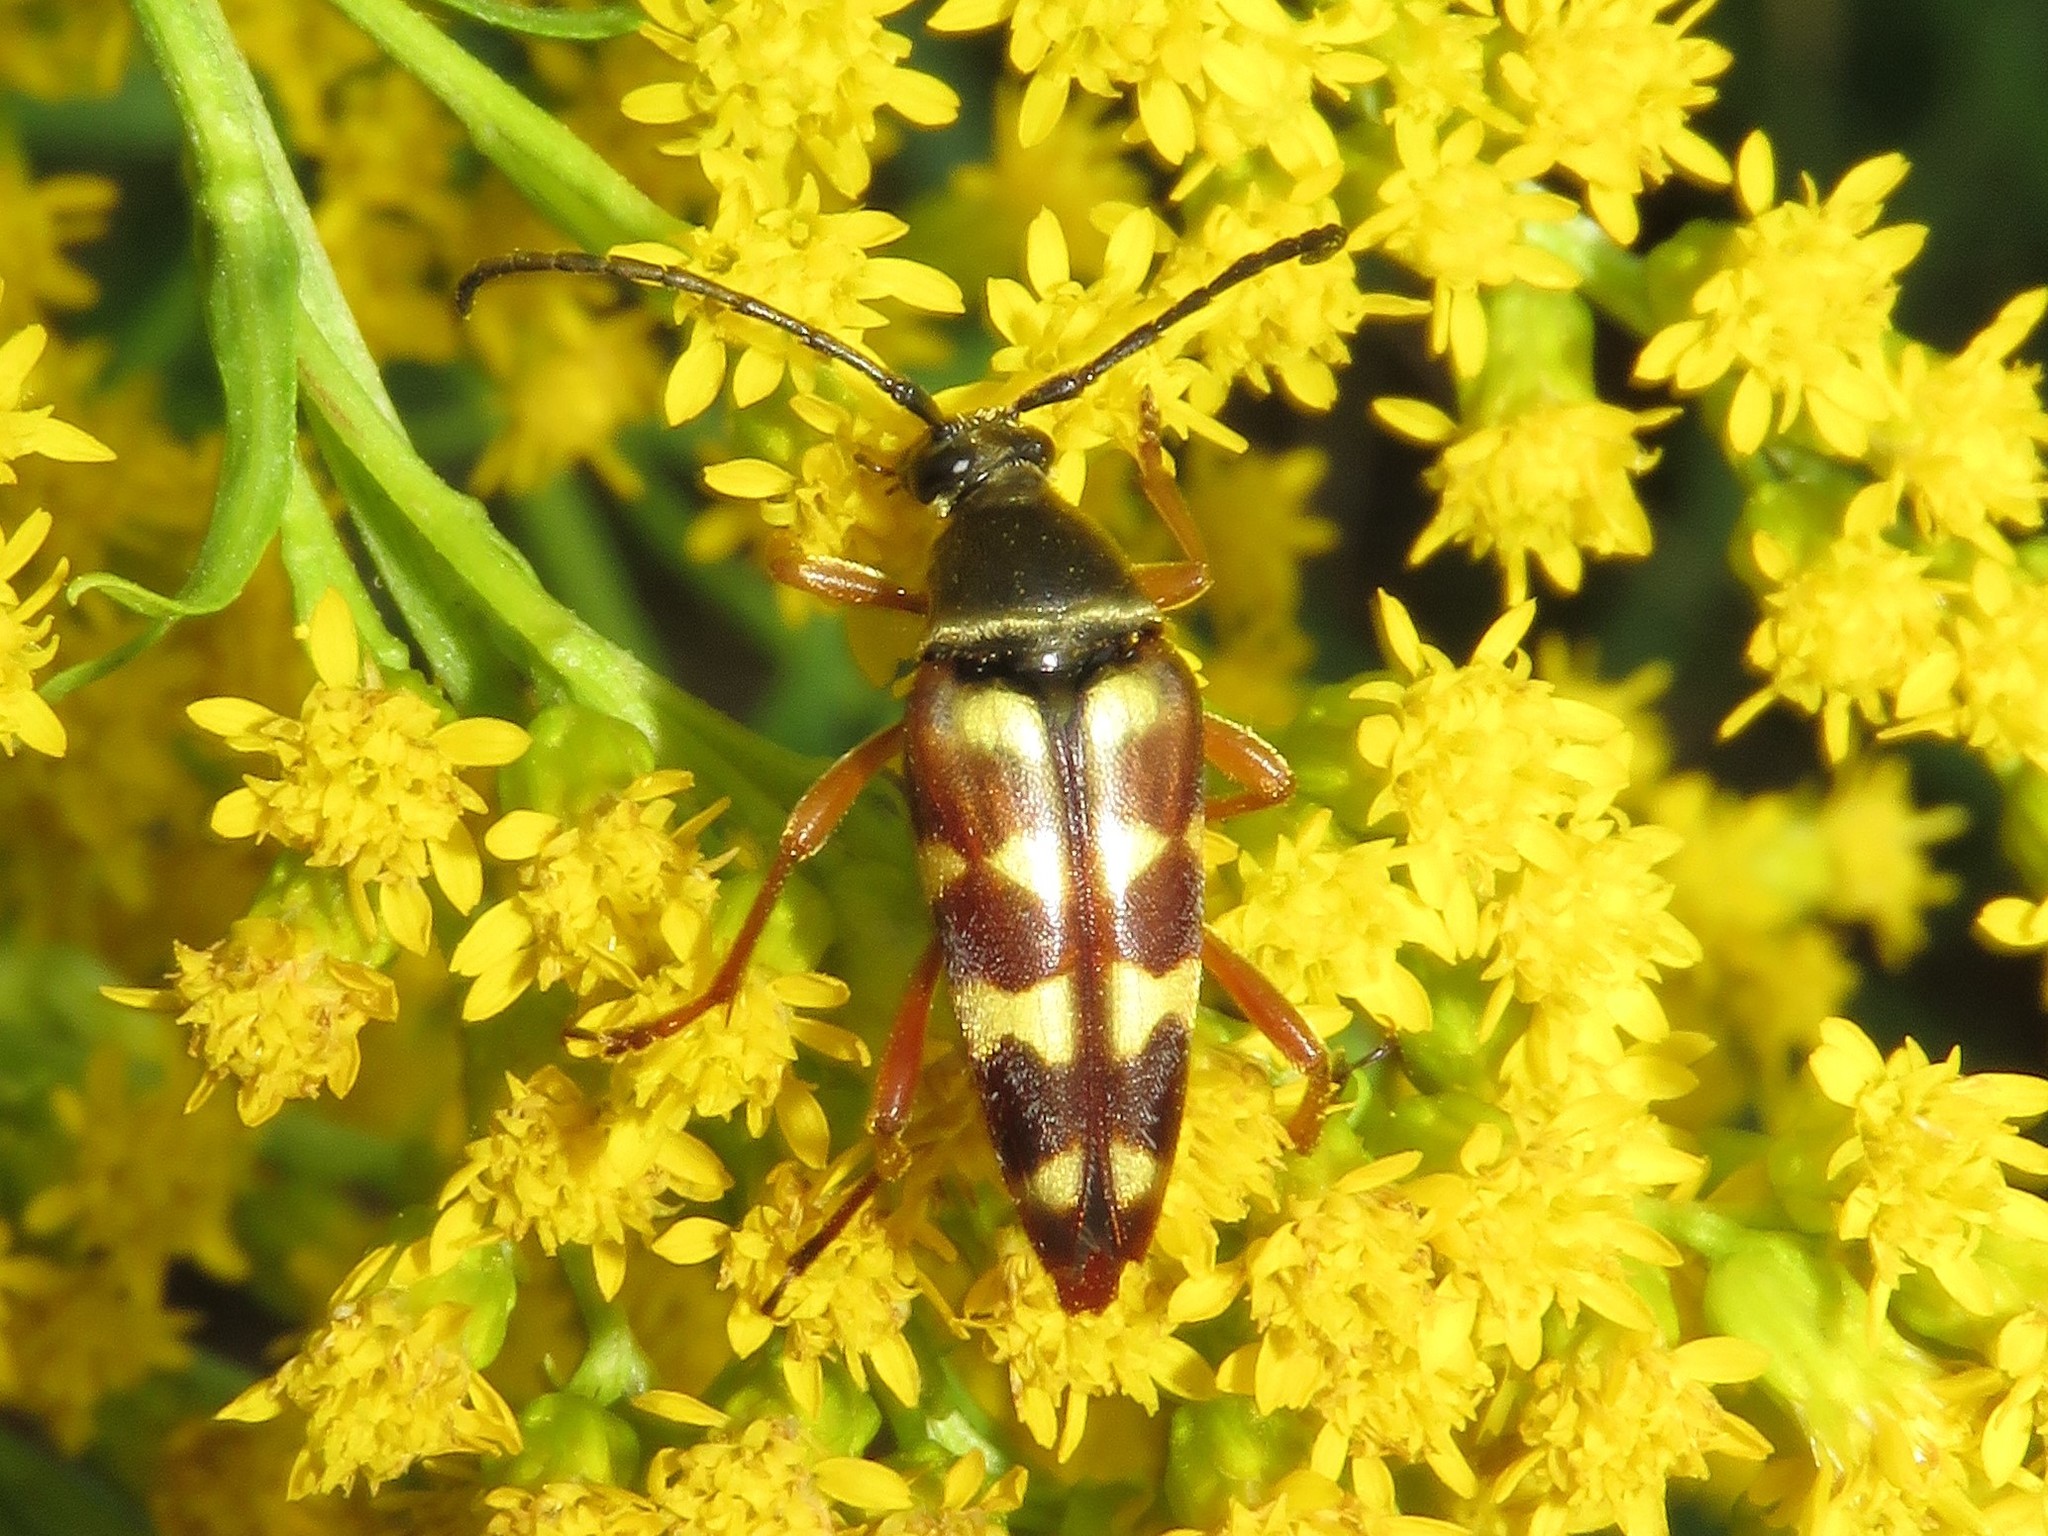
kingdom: Animalia
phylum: Arthropoda
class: Insecta
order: Coleoptera
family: Cerambycidae
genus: Typocerus
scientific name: Typocerus velutinus
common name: Banded longhorn beetle
